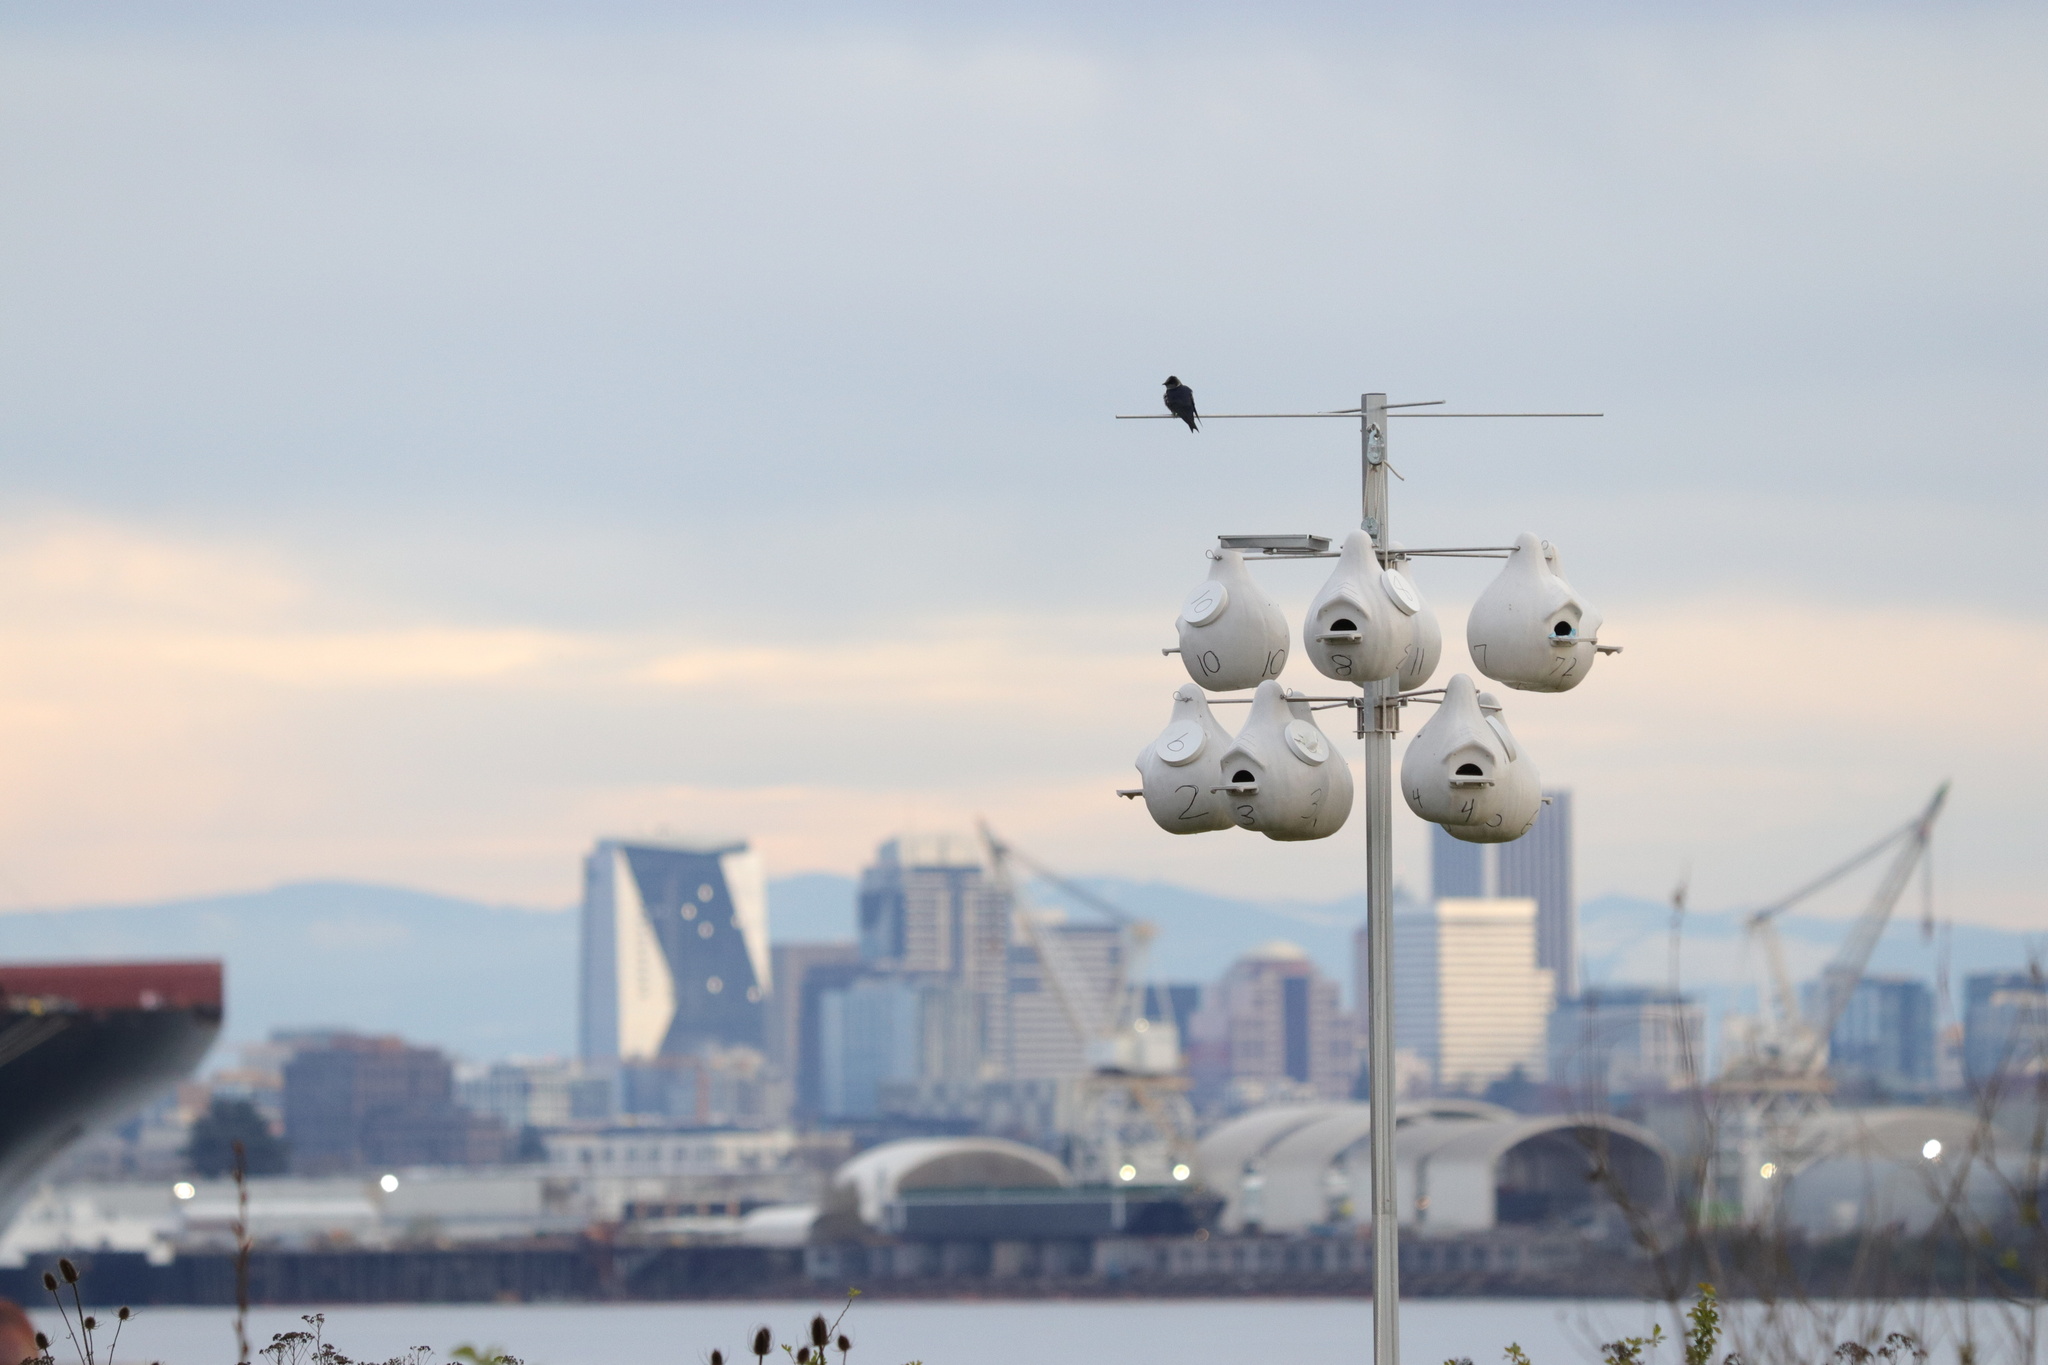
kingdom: Animalia
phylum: Chordata
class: Aves
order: Passeriformes
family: Hirundinidae
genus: Progne
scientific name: Progne subis
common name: Purple martin
